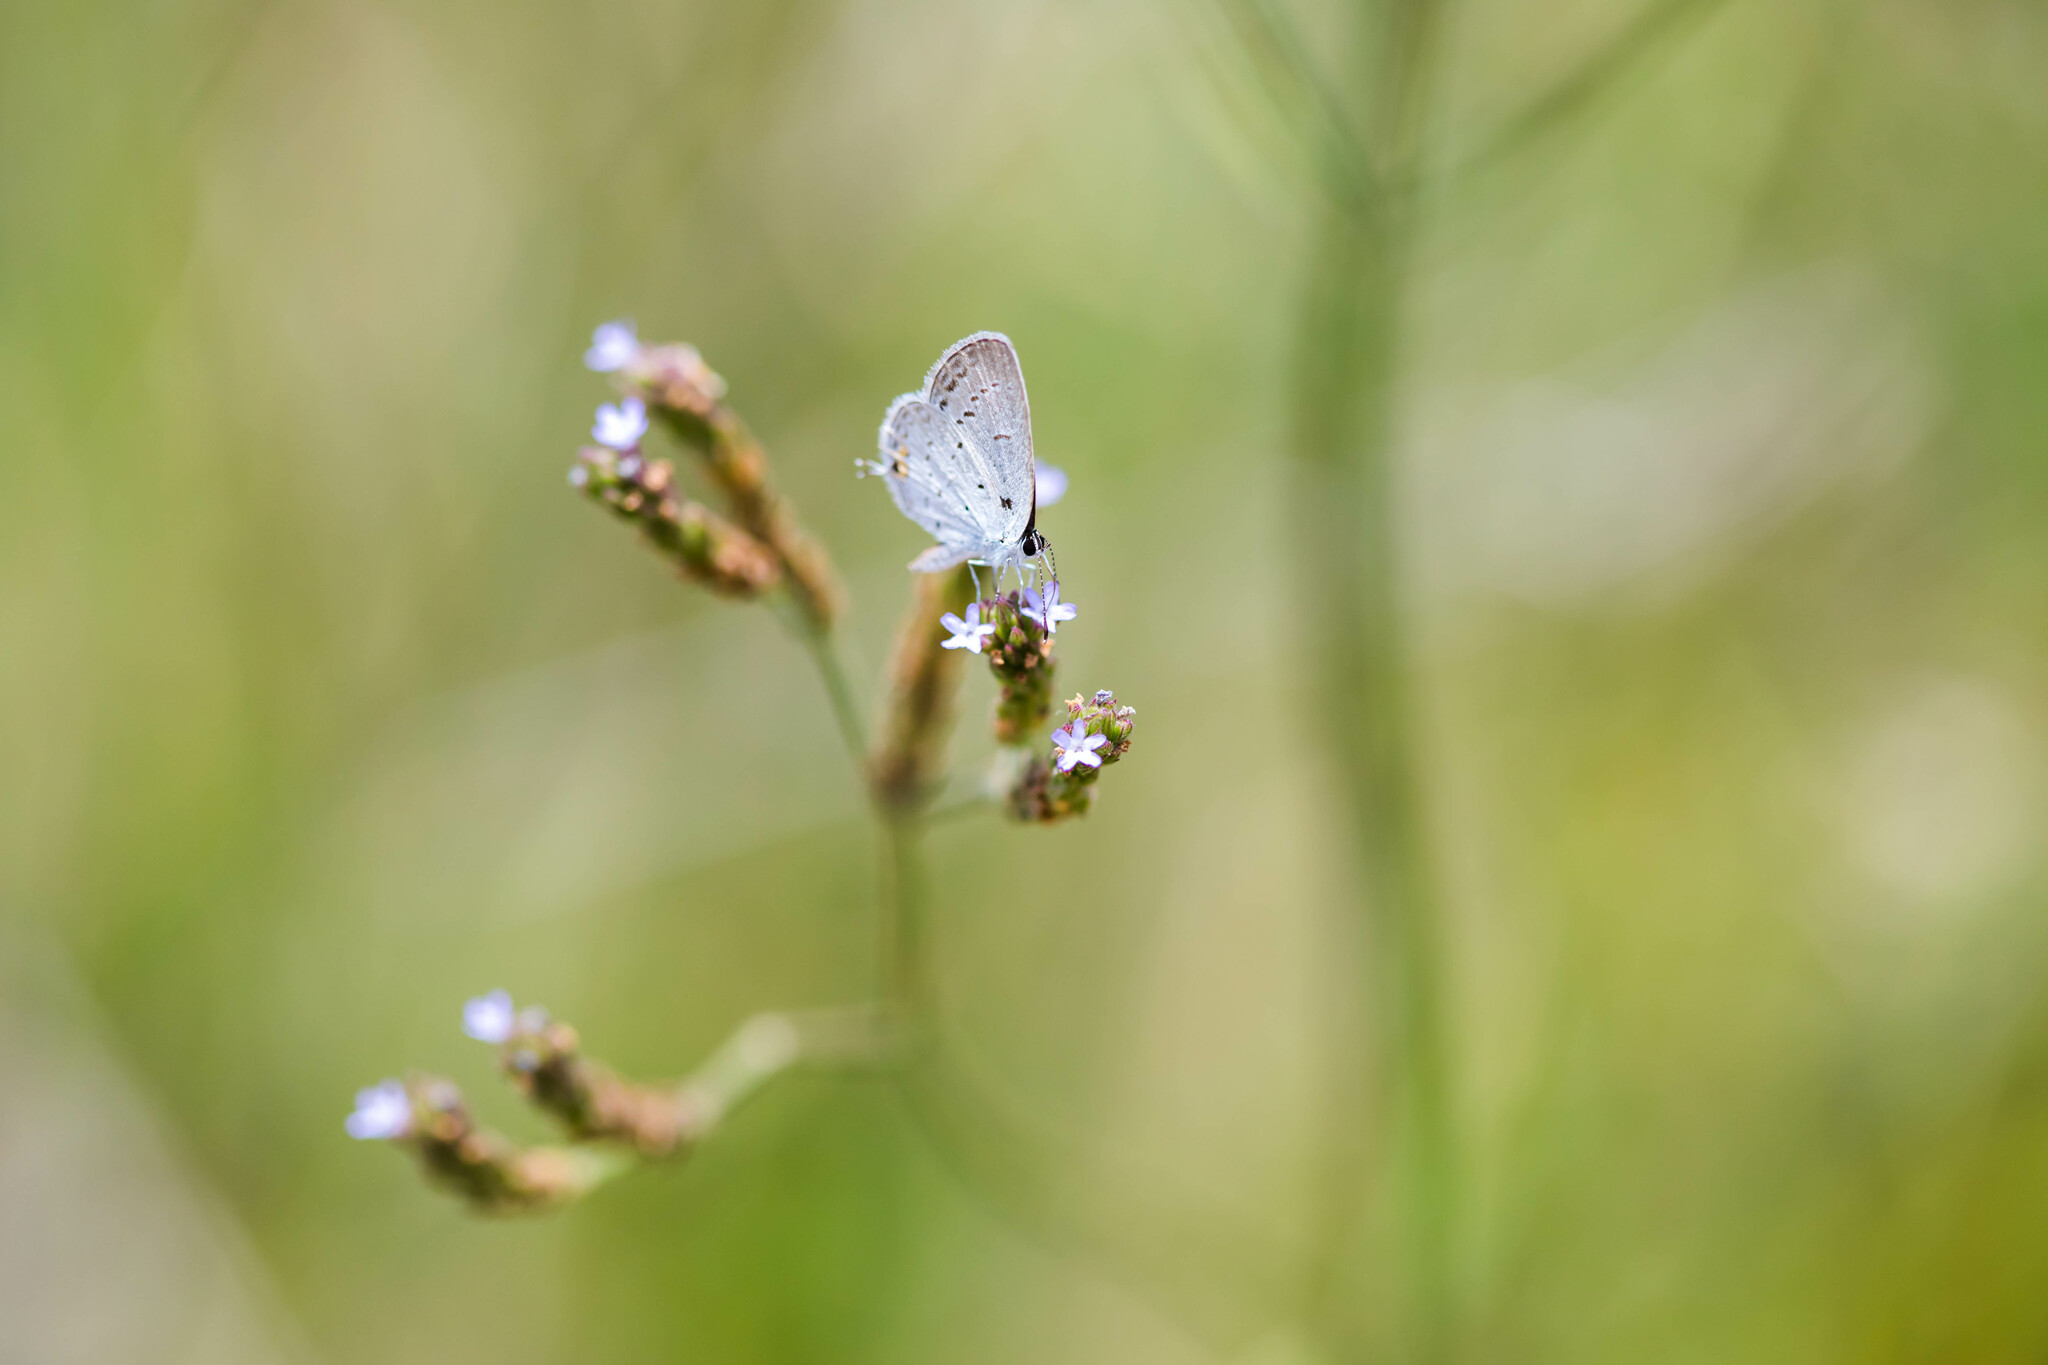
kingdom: Animalia
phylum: Arthropoda
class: Insecta
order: Lepidoptera
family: Lycaenidae
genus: Elkalyce
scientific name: Elkalyce comyntas
